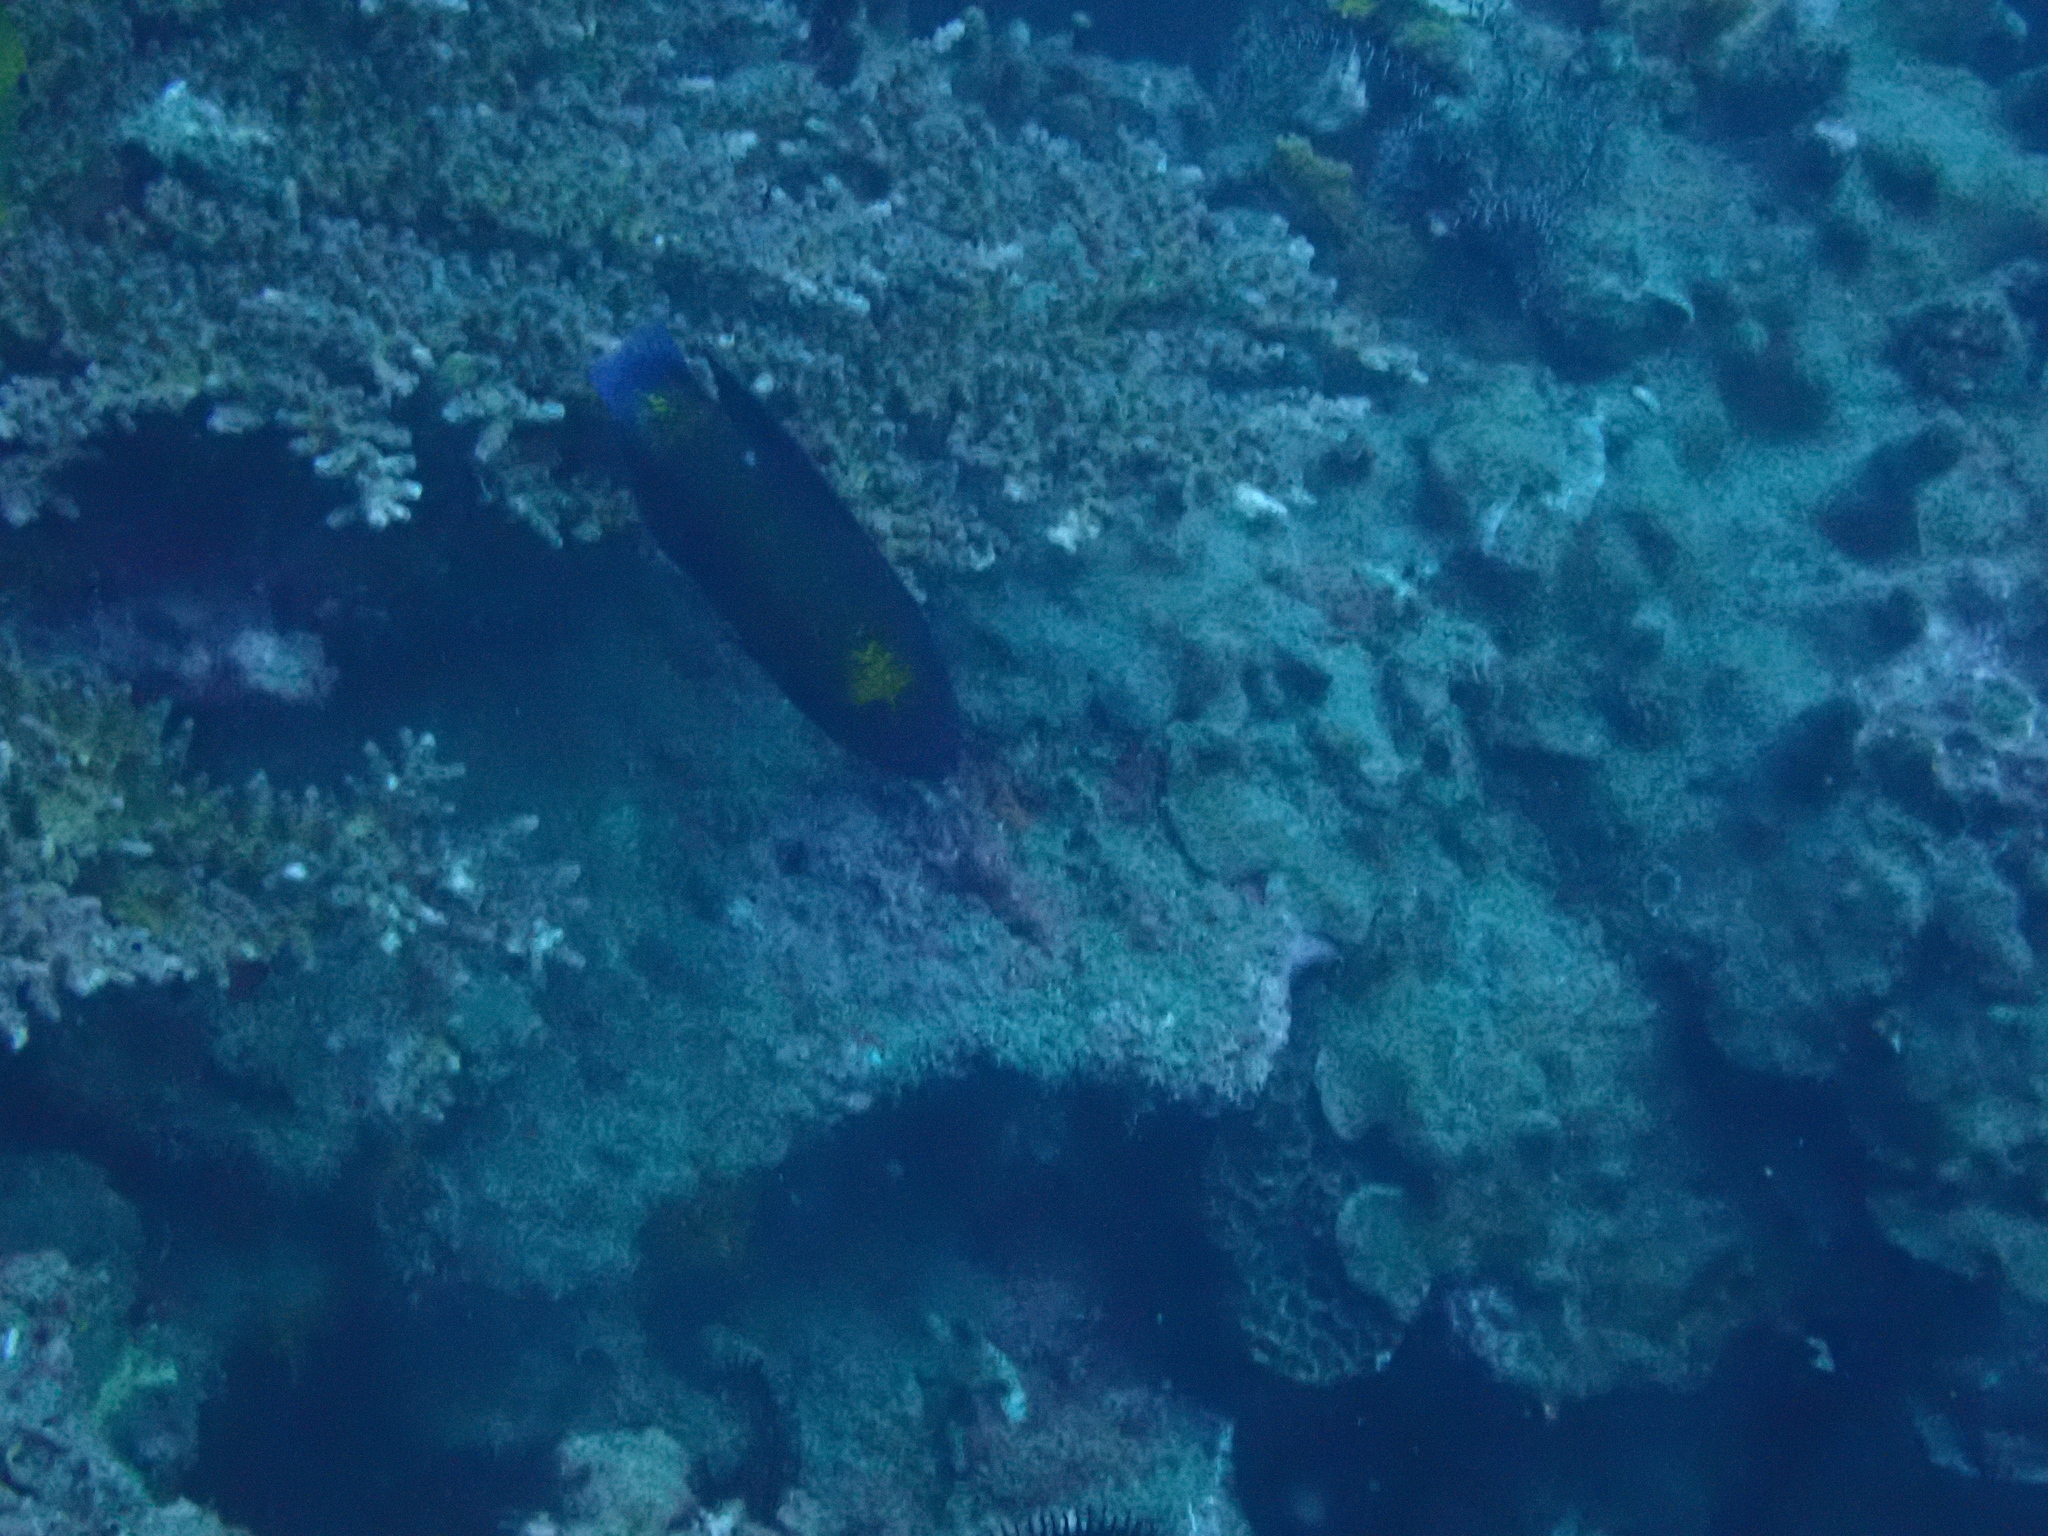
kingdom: Animalia
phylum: Chordata
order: Perciformes
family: Labridae
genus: Labropsis
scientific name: Labropsis manabei
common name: Northern tubelip
